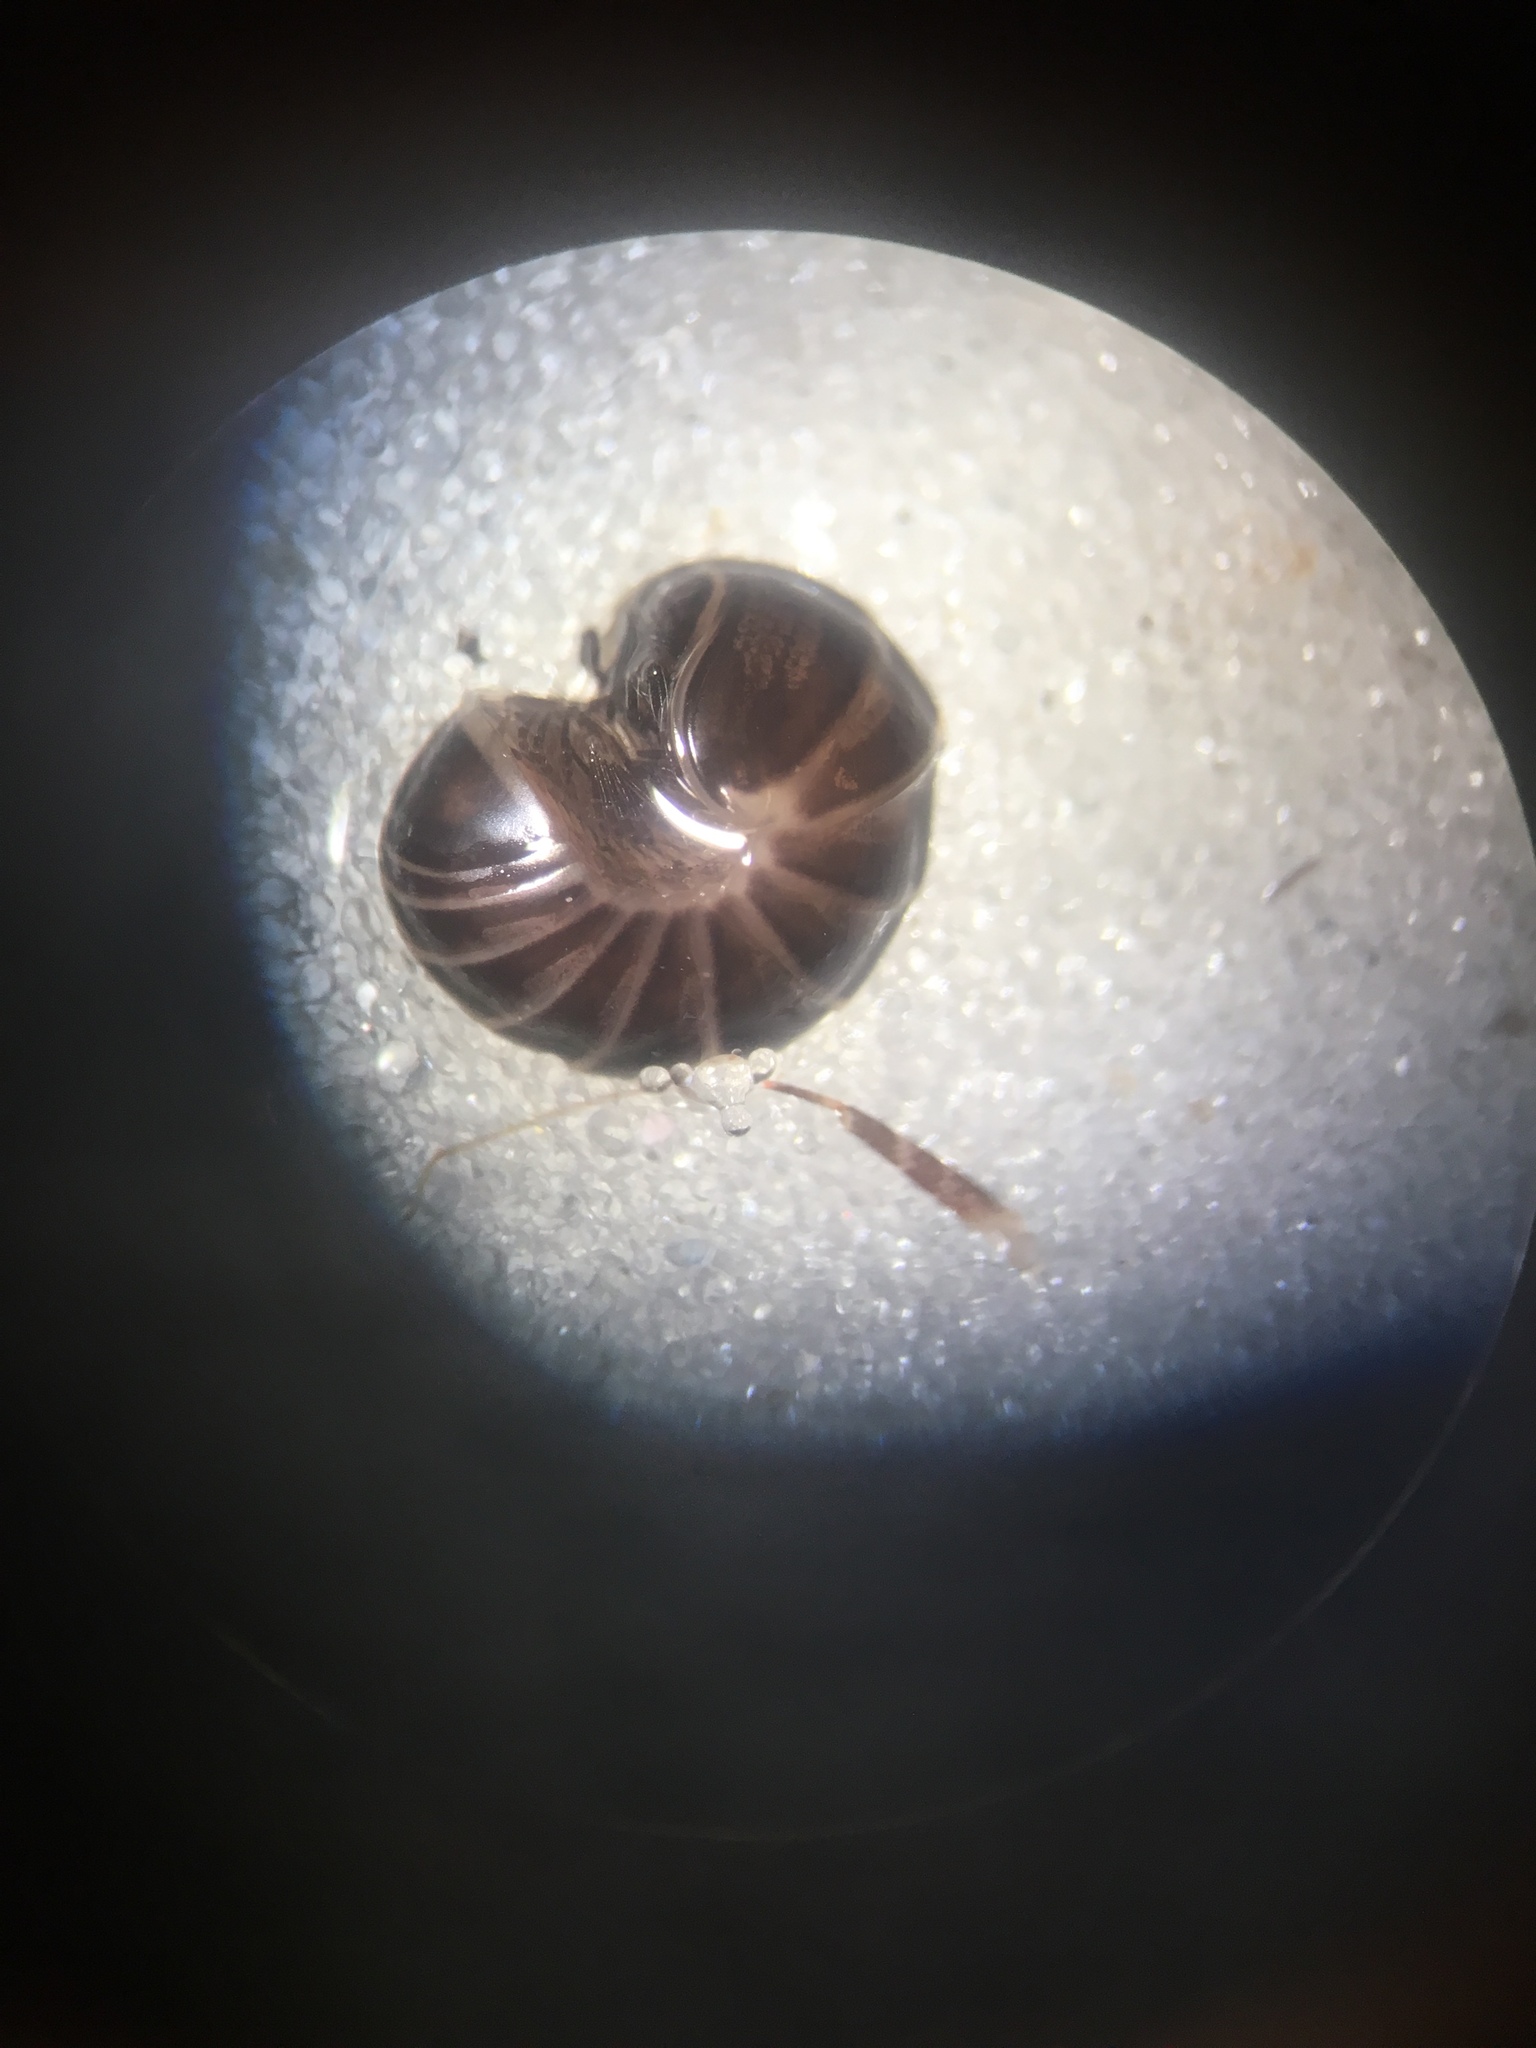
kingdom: Animalia
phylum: Arthropoda
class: Diplopoda
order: Glomerida
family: Glomeridae
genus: Glomeris
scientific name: Glomeris marginata
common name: Bordered pill millipede
